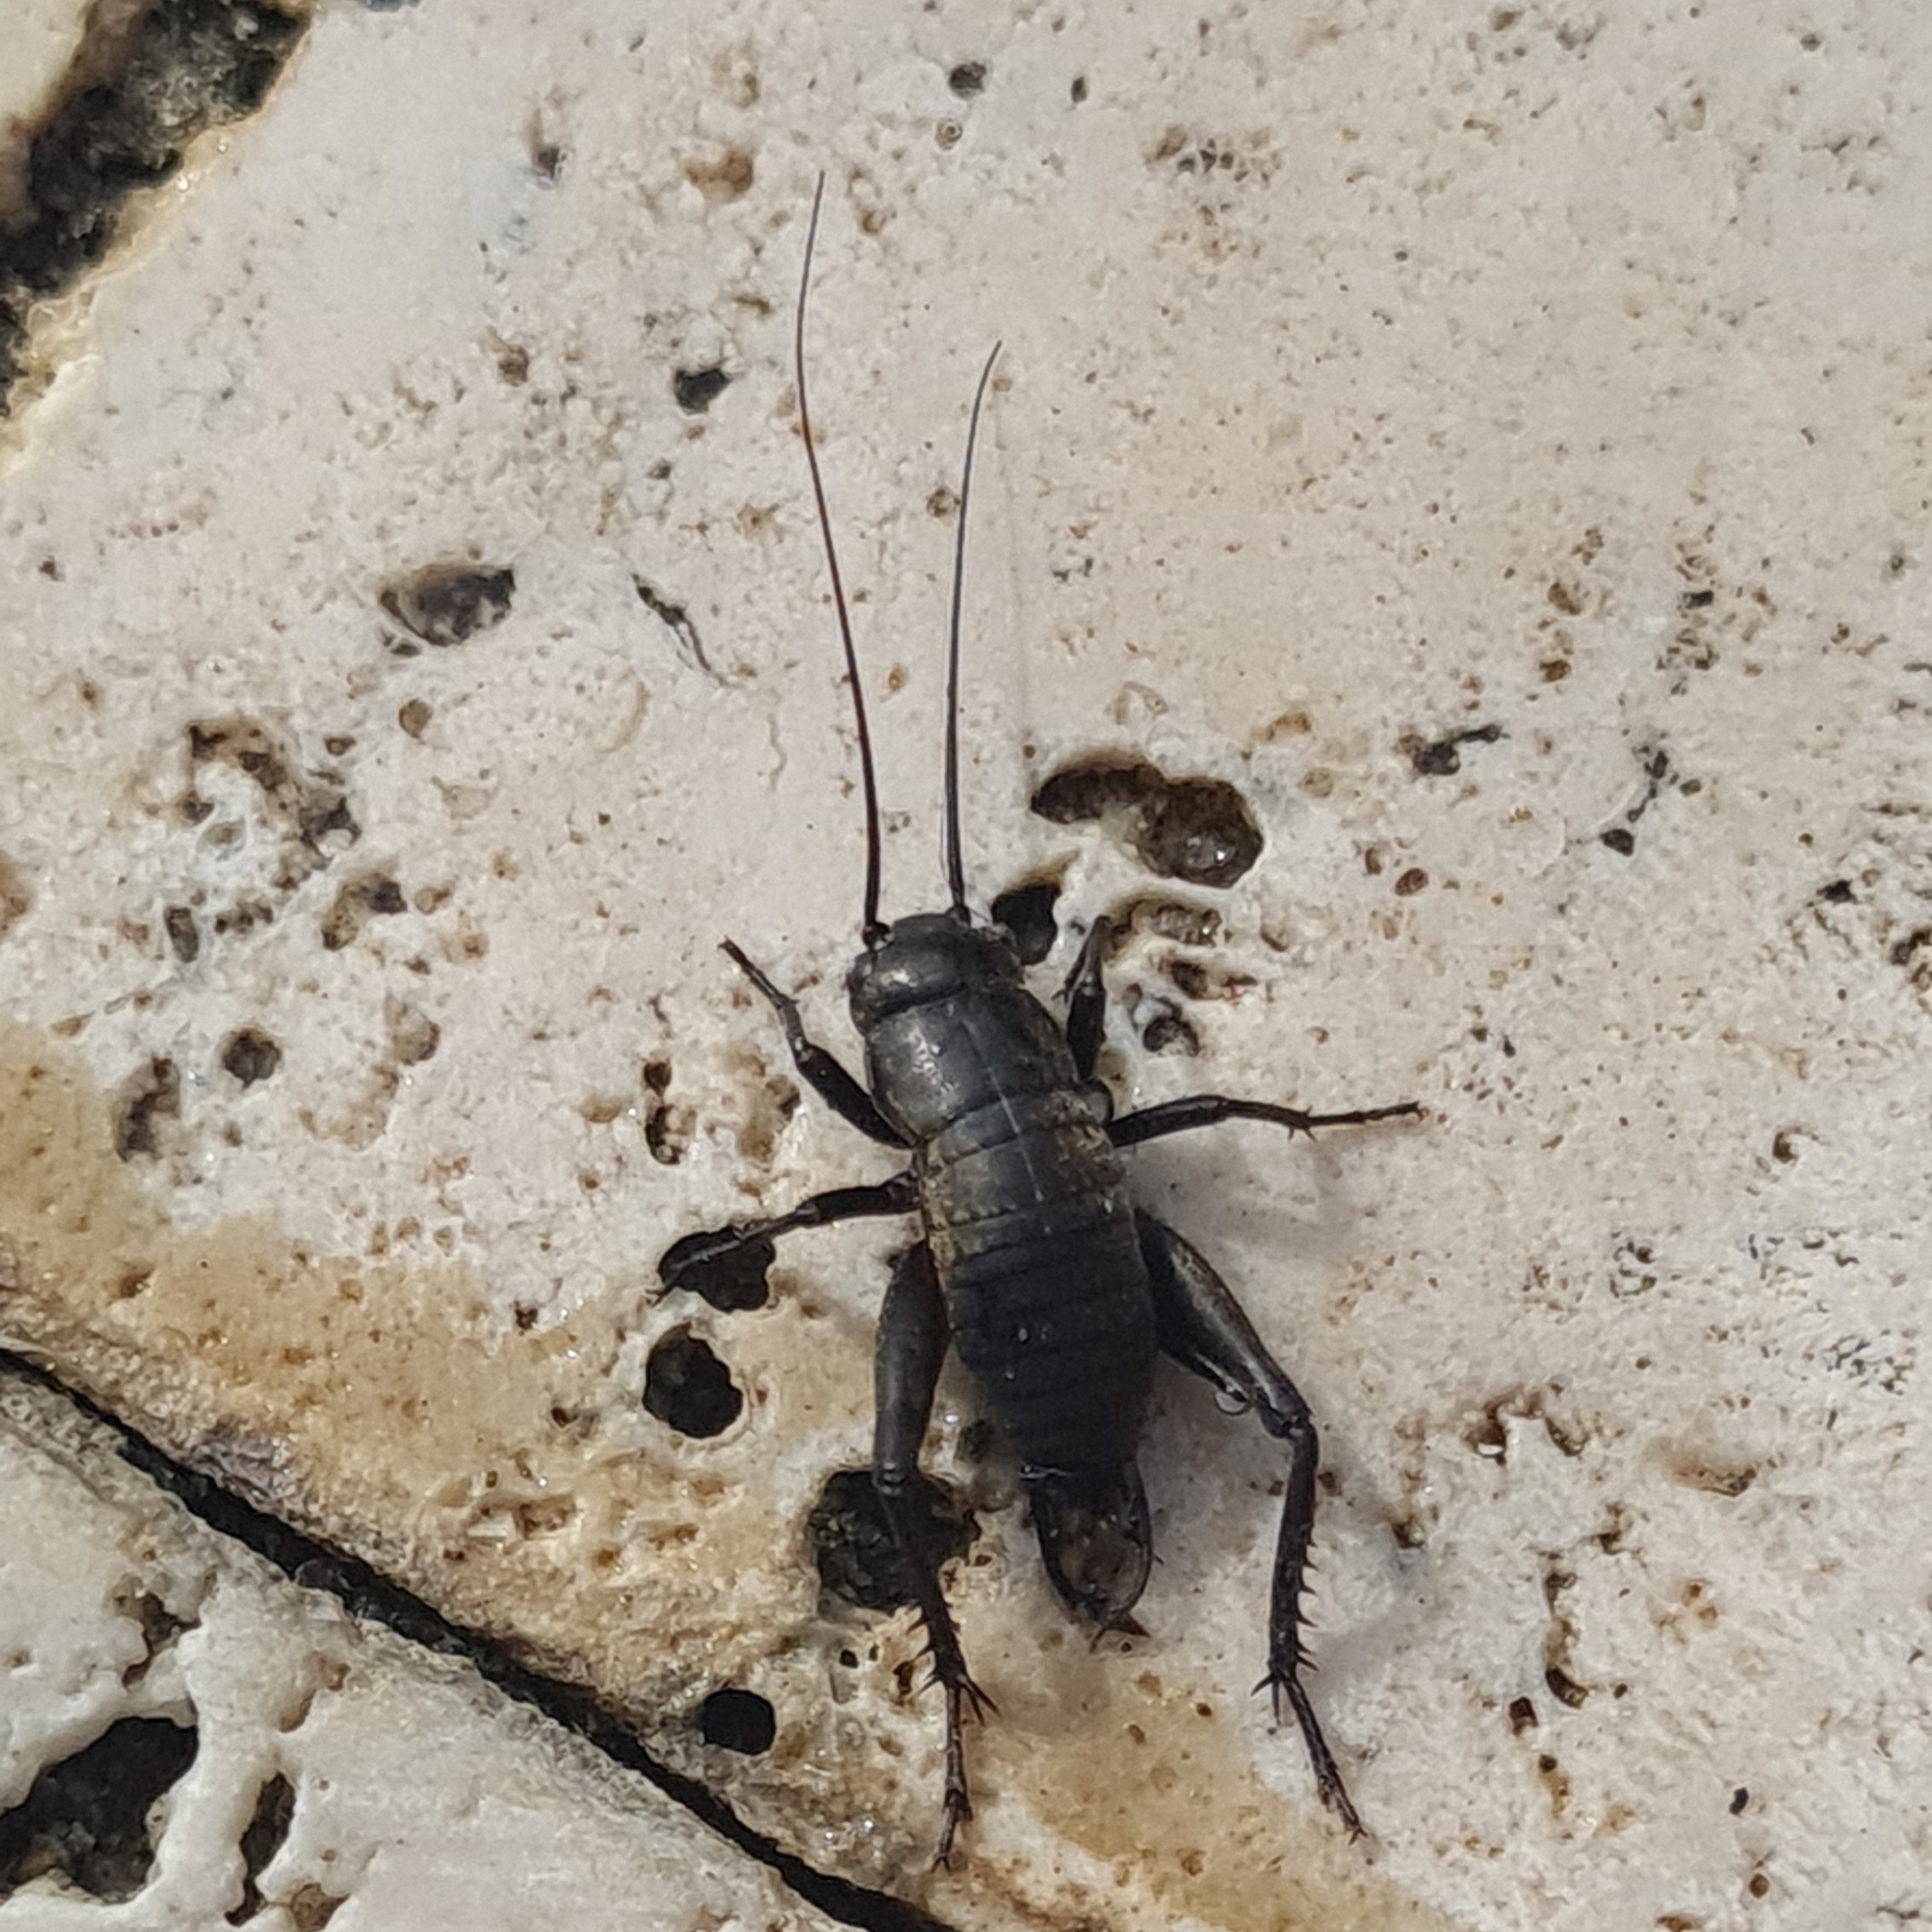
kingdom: Animalia
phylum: Arthropoda
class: Insecta
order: Orthoptera
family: Gryllidae
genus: Gryllus
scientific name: Gryllus bimaculatus
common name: Two-spotted cricket
